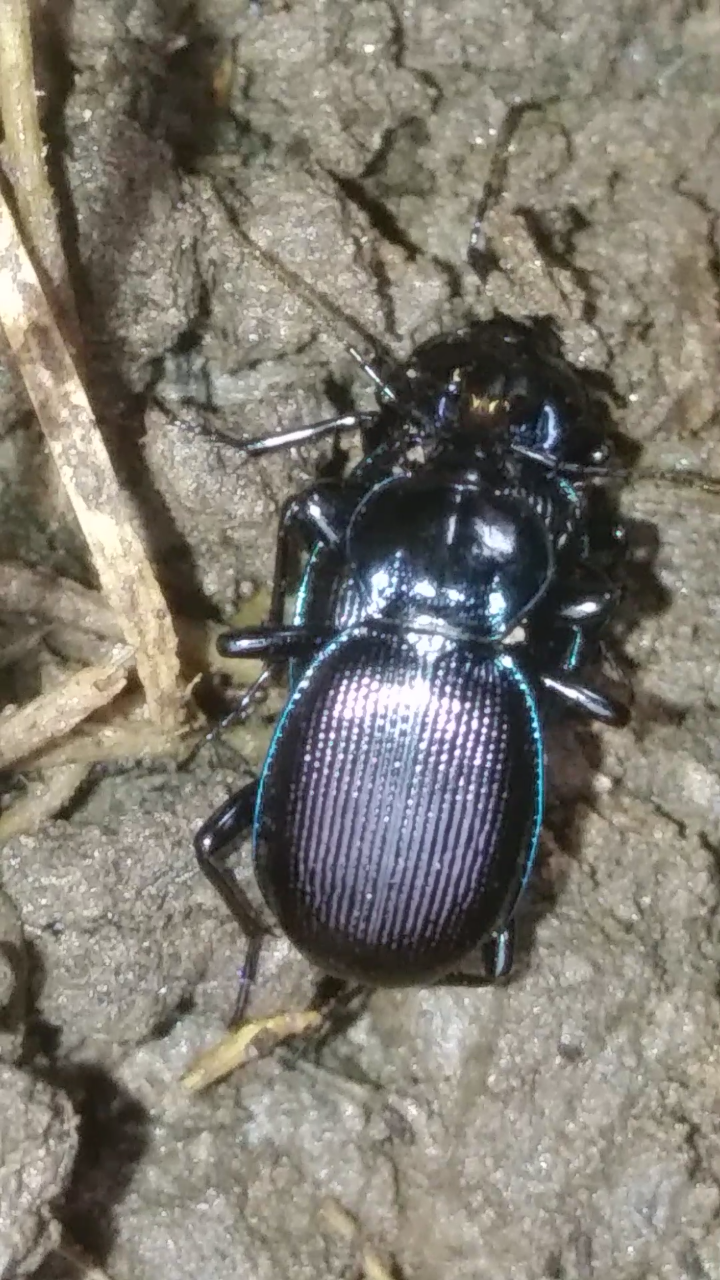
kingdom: Animalia
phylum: Arthropoda
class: Insecta
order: Coleoptera
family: Carabidae
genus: Sphaeroderus
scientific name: Sphaeroderus stenostomus
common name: Small snail-eating ground beetle
